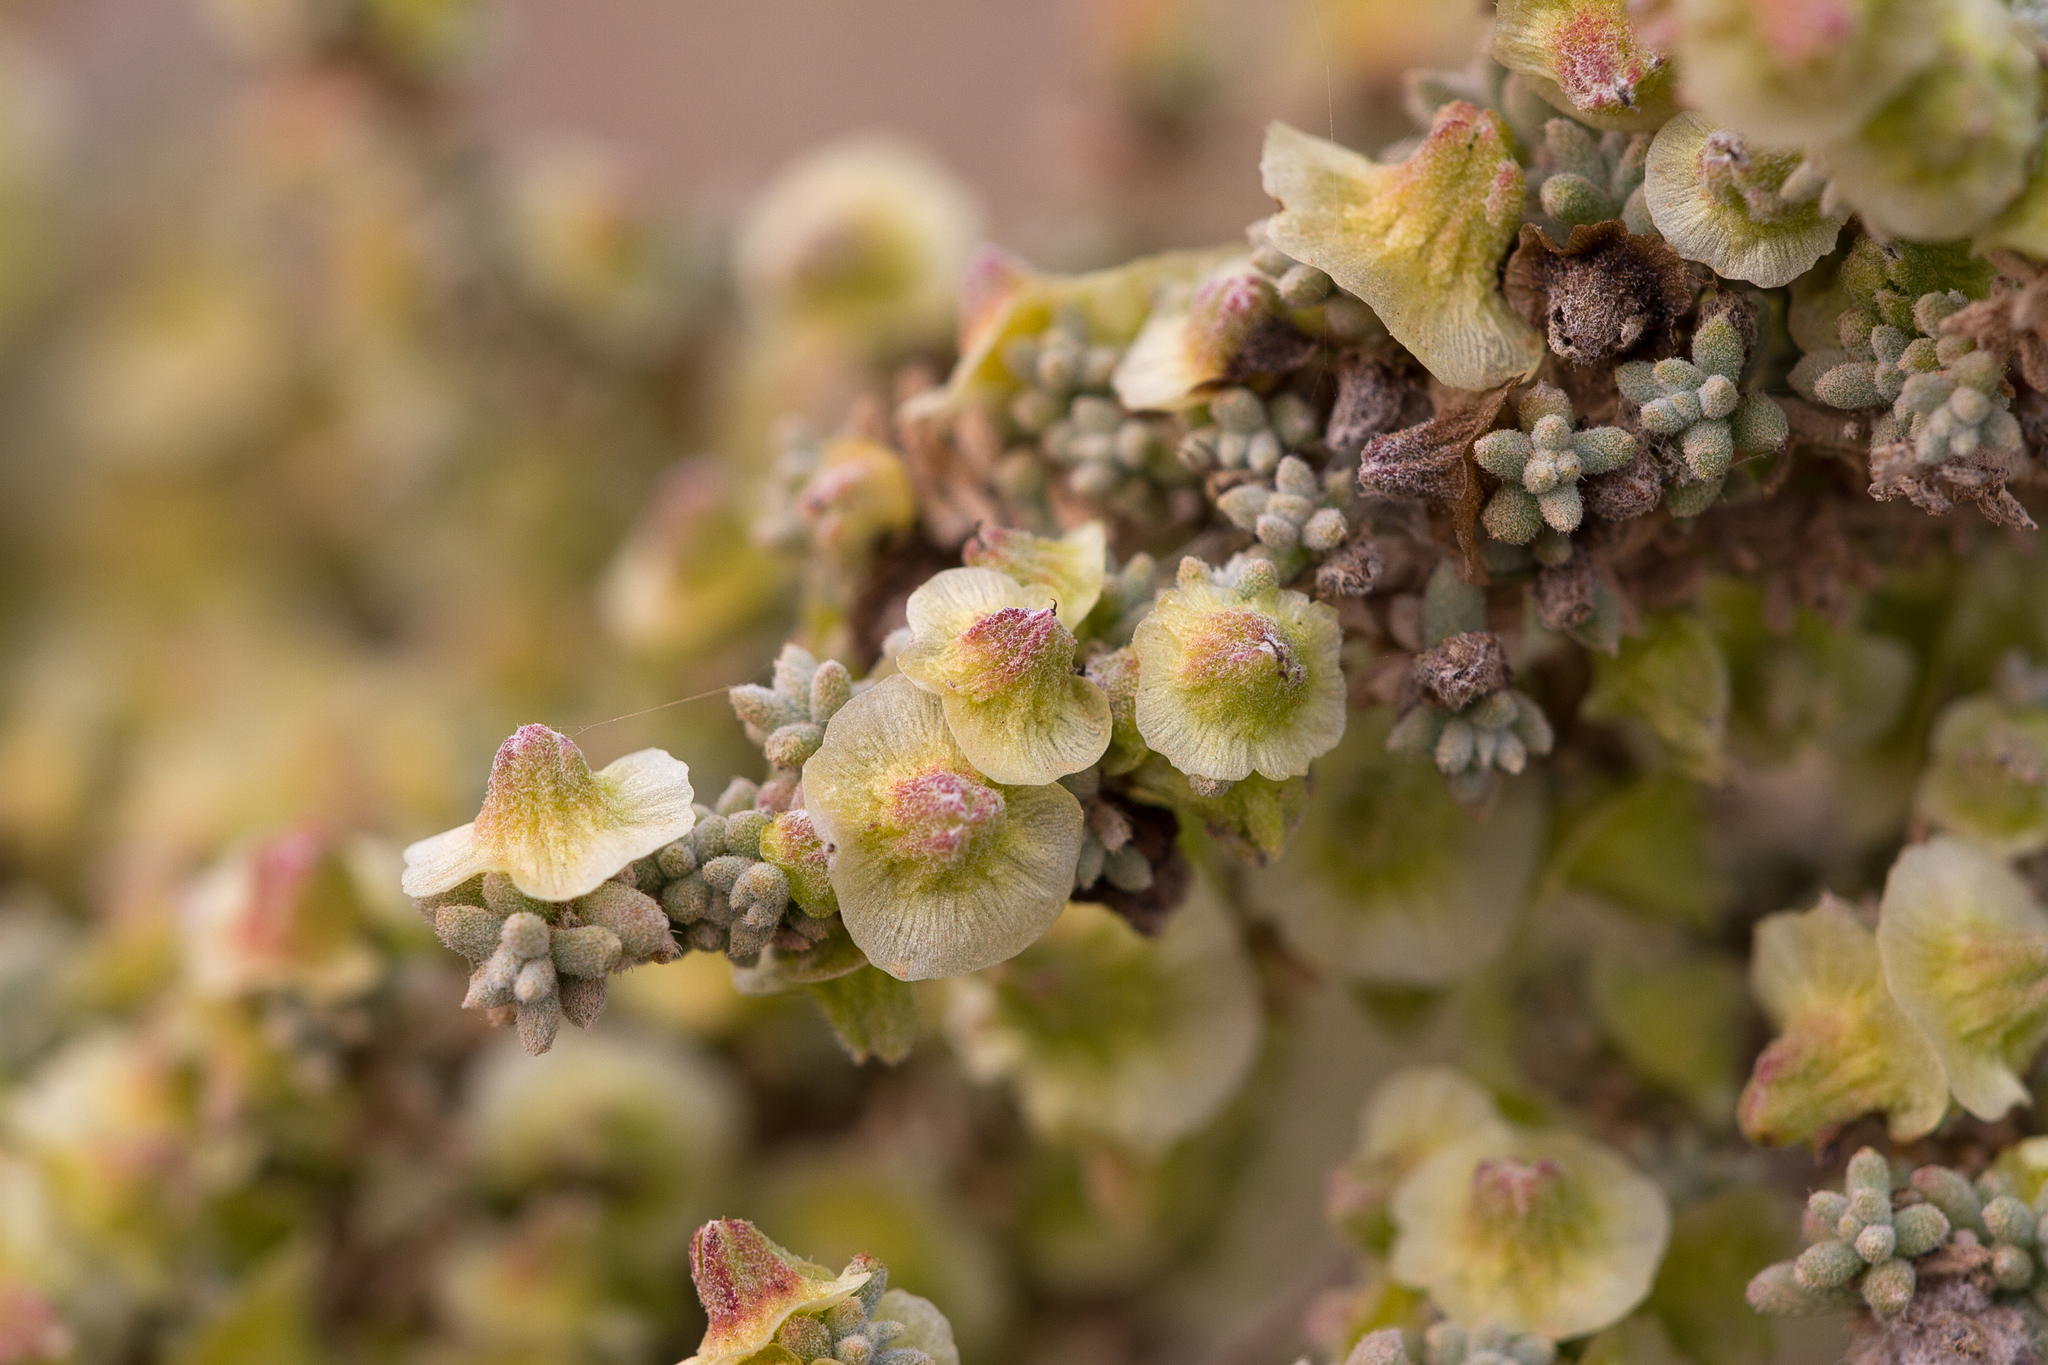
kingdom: Plantae
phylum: Tracheophyta
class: Magnoliopsida
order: Caryophyllales
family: Amaranthaceae
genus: Maireana
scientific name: Maireana pyramidata
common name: Sagobush
